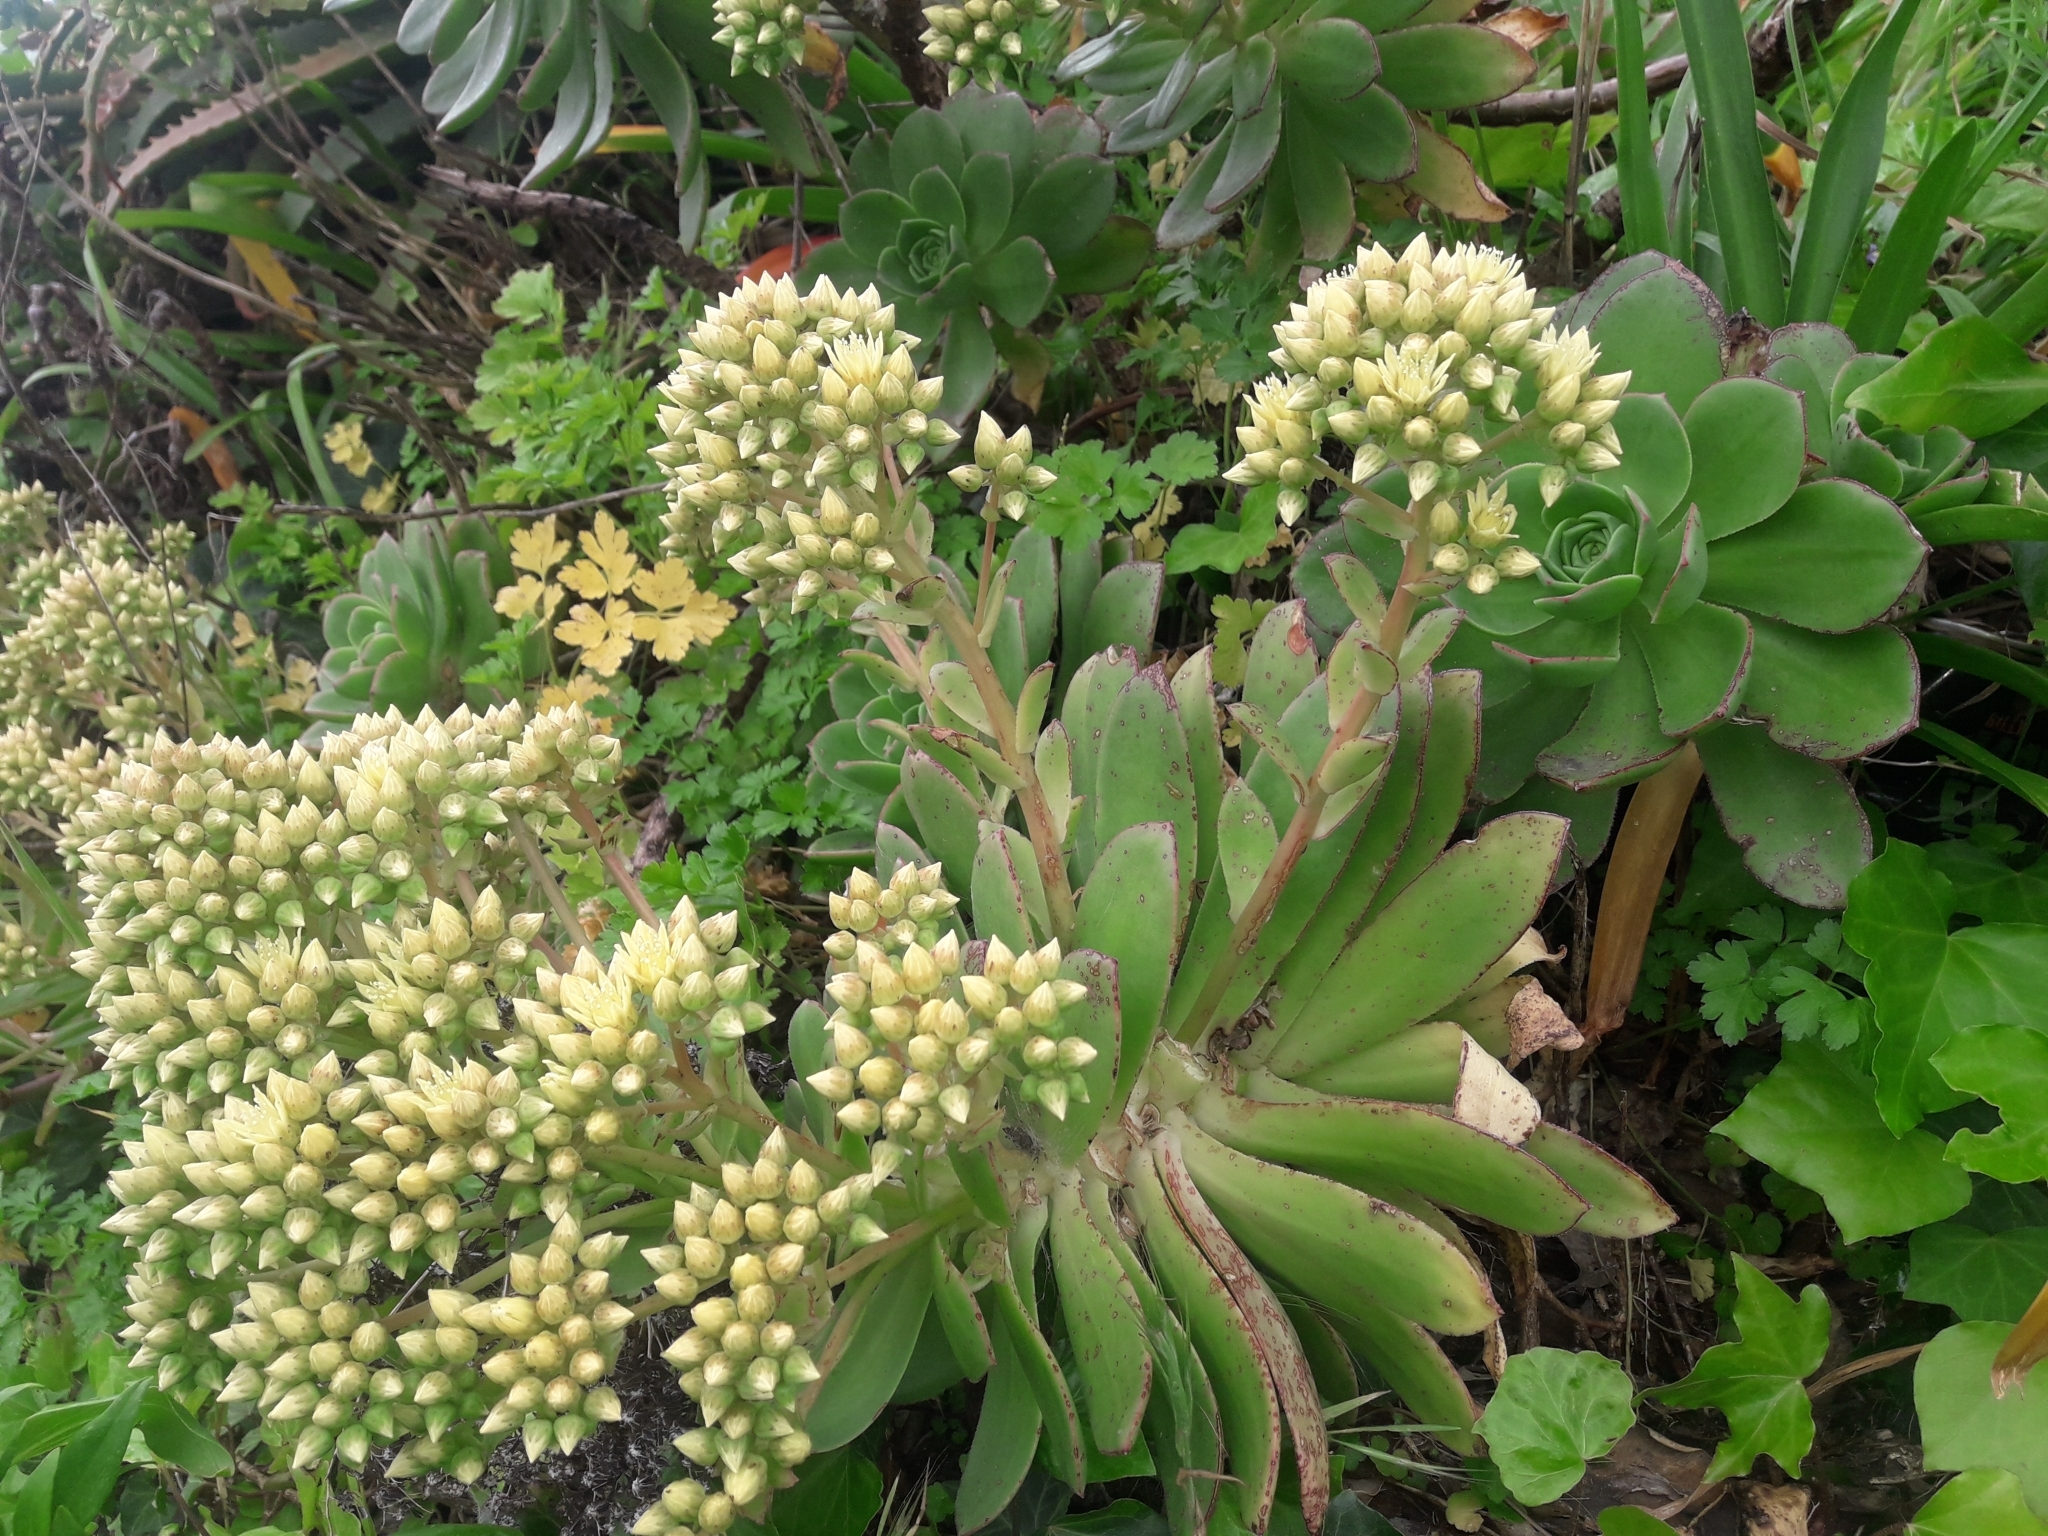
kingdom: Plantae
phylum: Tracheophyta
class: Magnoliopsida
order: Saxifragales
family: Crassulaceae
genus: Aeonium
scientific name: Aeonium haworthii
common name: Haworth's aeonium
